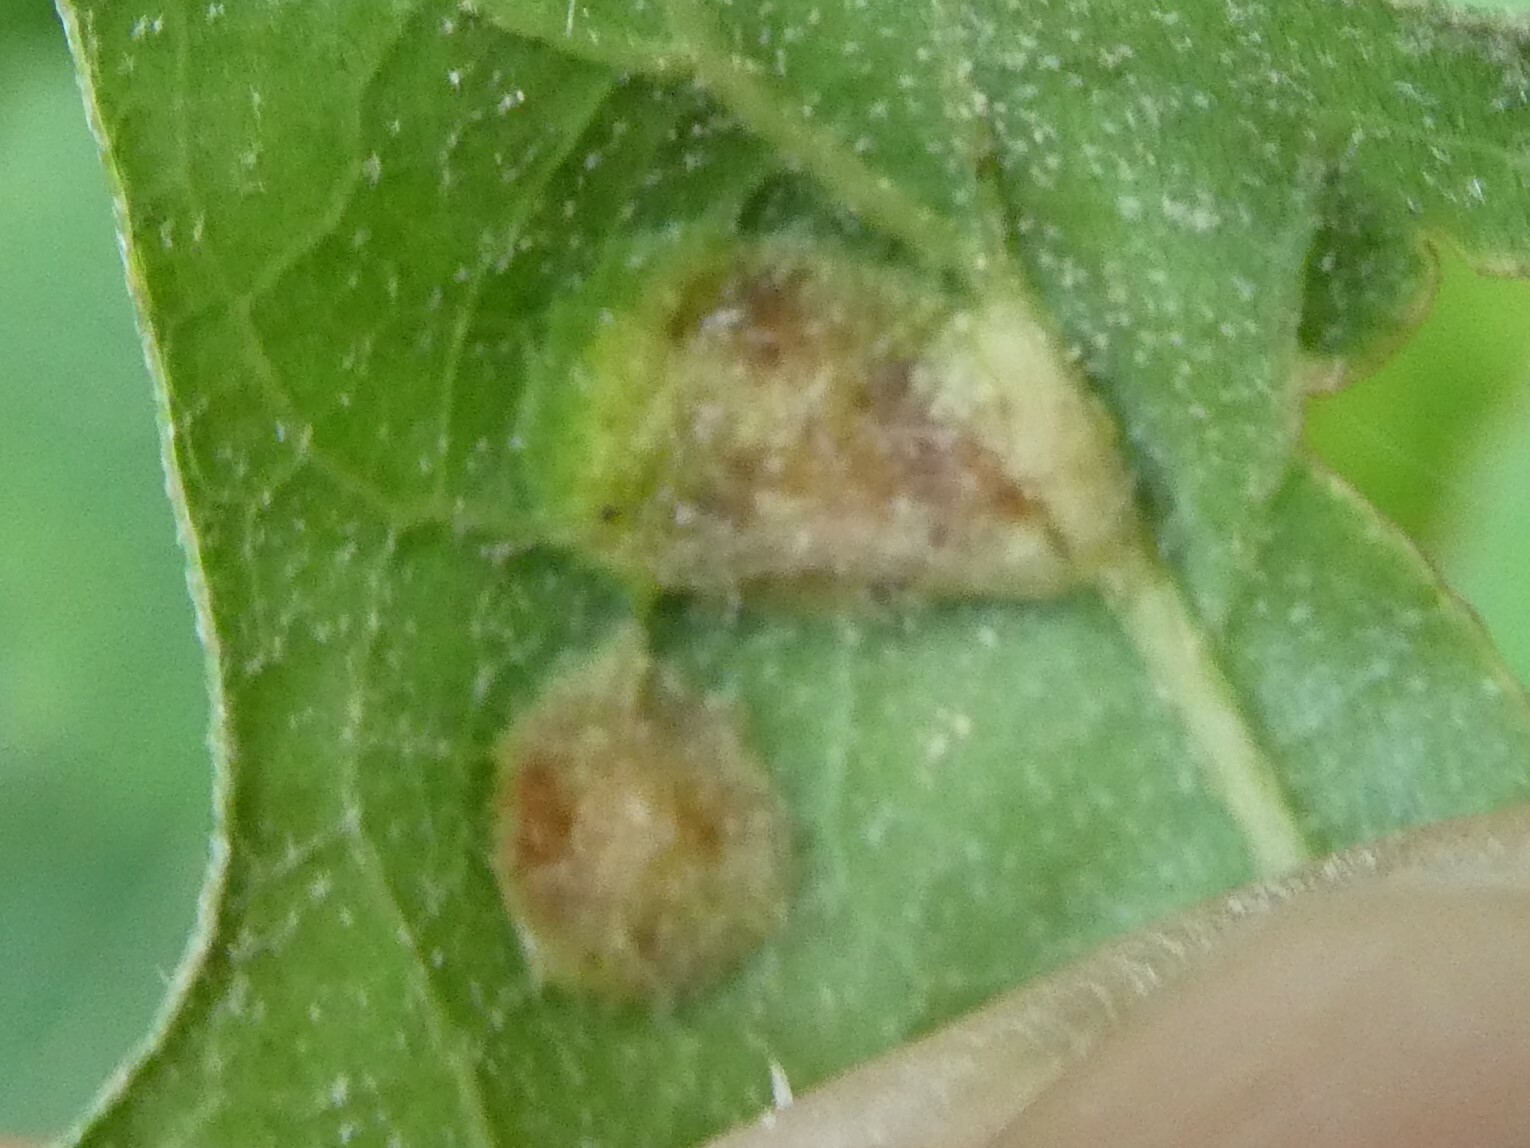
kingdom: Animalia
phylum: Arthropoda
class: Insecta
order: Diptera
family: Cecidomyiidae
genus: Polystepha
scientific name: Polystepha pilulae
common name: Oak leaf gall midge
